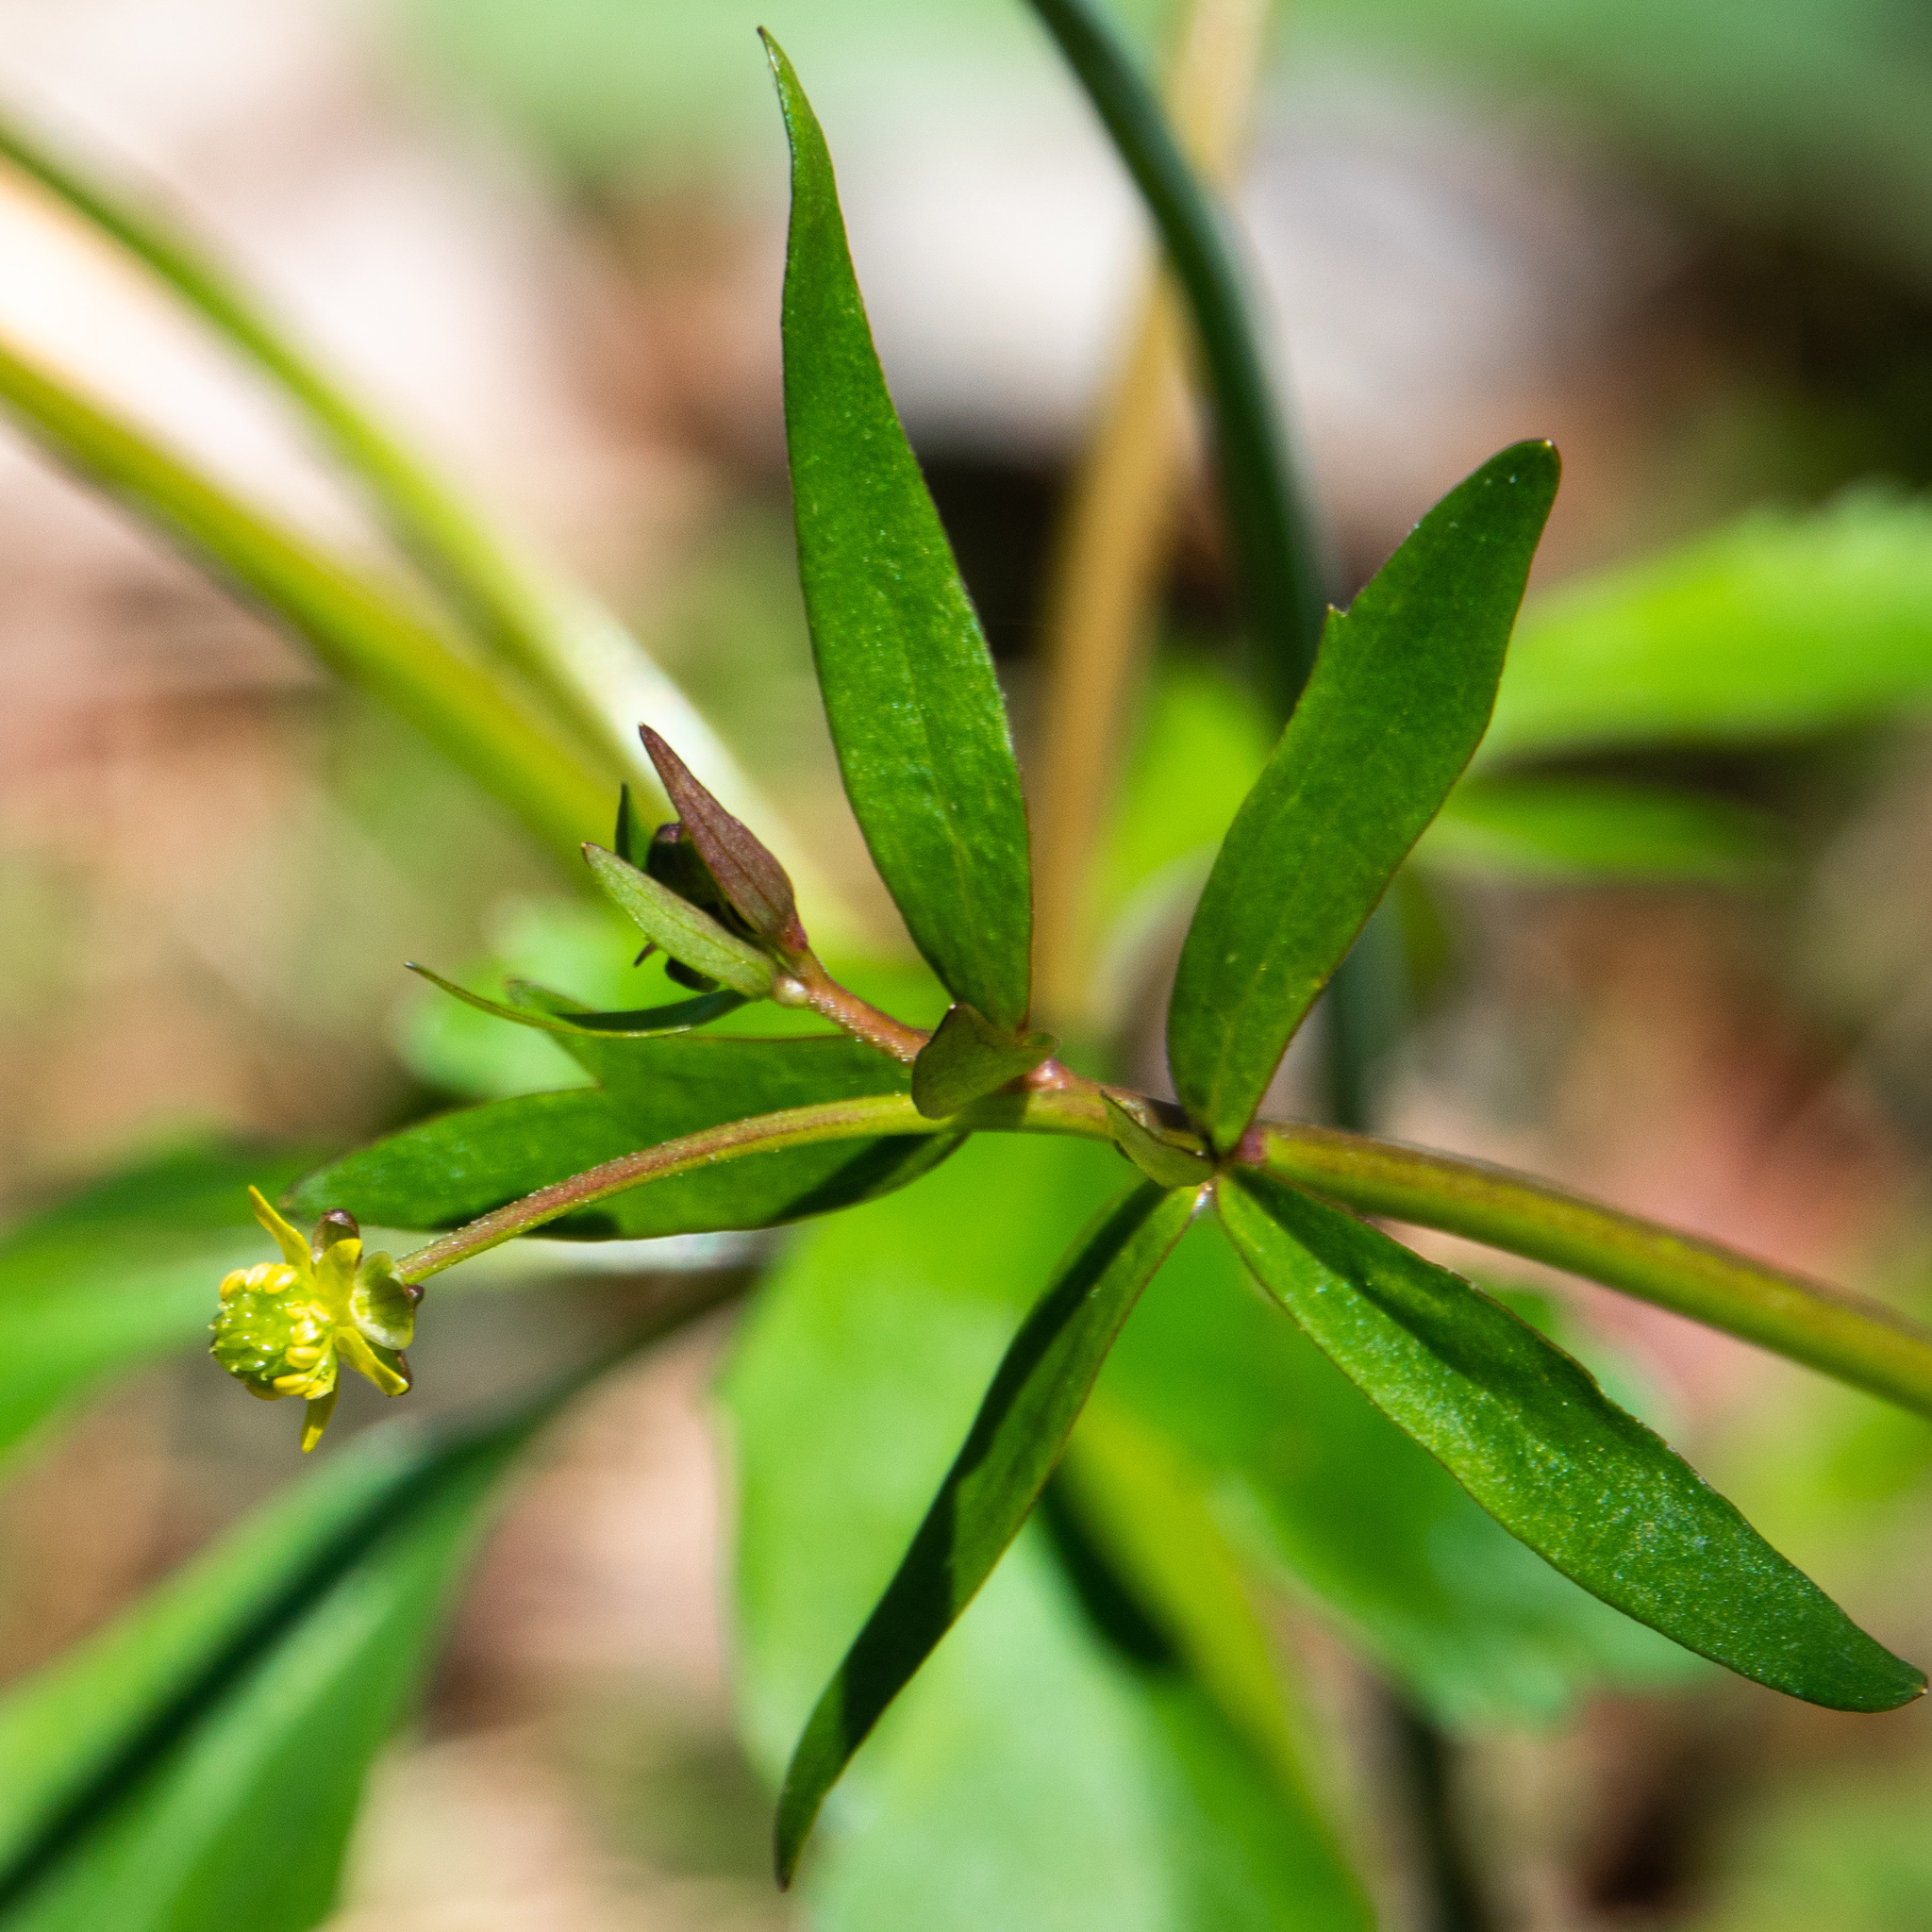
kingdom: Plantae
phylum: Tracheophyta
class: Magnoliopsida
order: Ranunculales
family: Ranunculaceae
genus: Ranunculus
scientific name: Ranunculus abortivus
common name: Early wood buttercup
